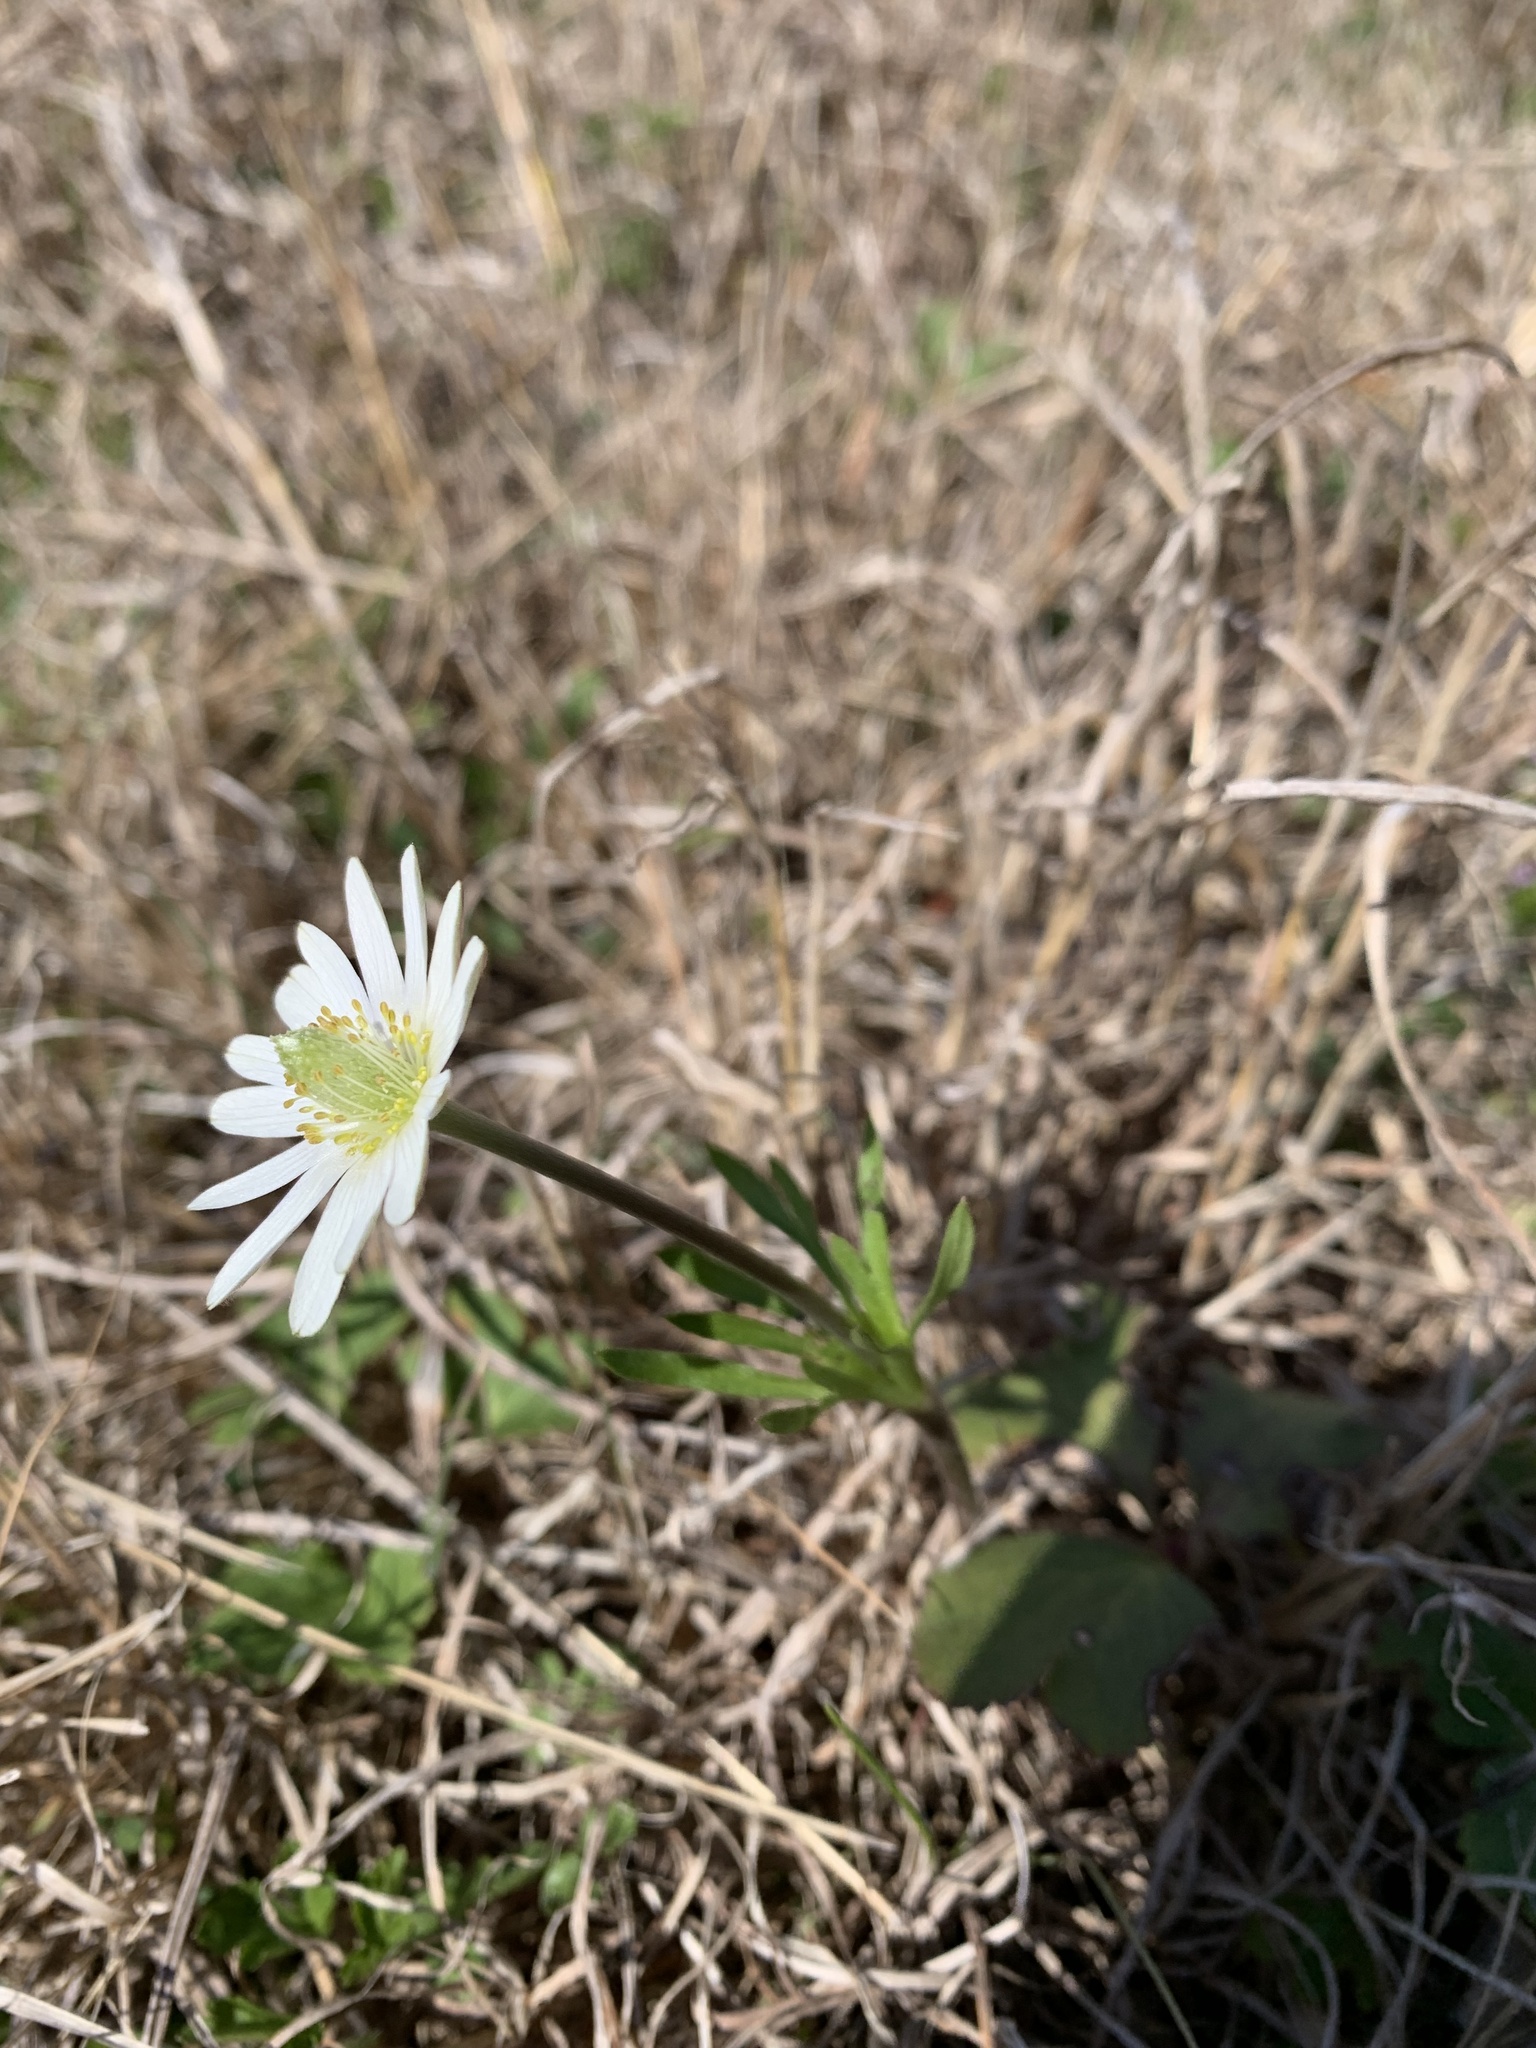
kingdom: Plantae
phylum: Tracheophyta
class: Magnoliopsida
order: Ranunculales
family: Ranunculaceae
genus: Anemone
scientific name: Anemone berlandieri
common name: Ten-petal anemone
